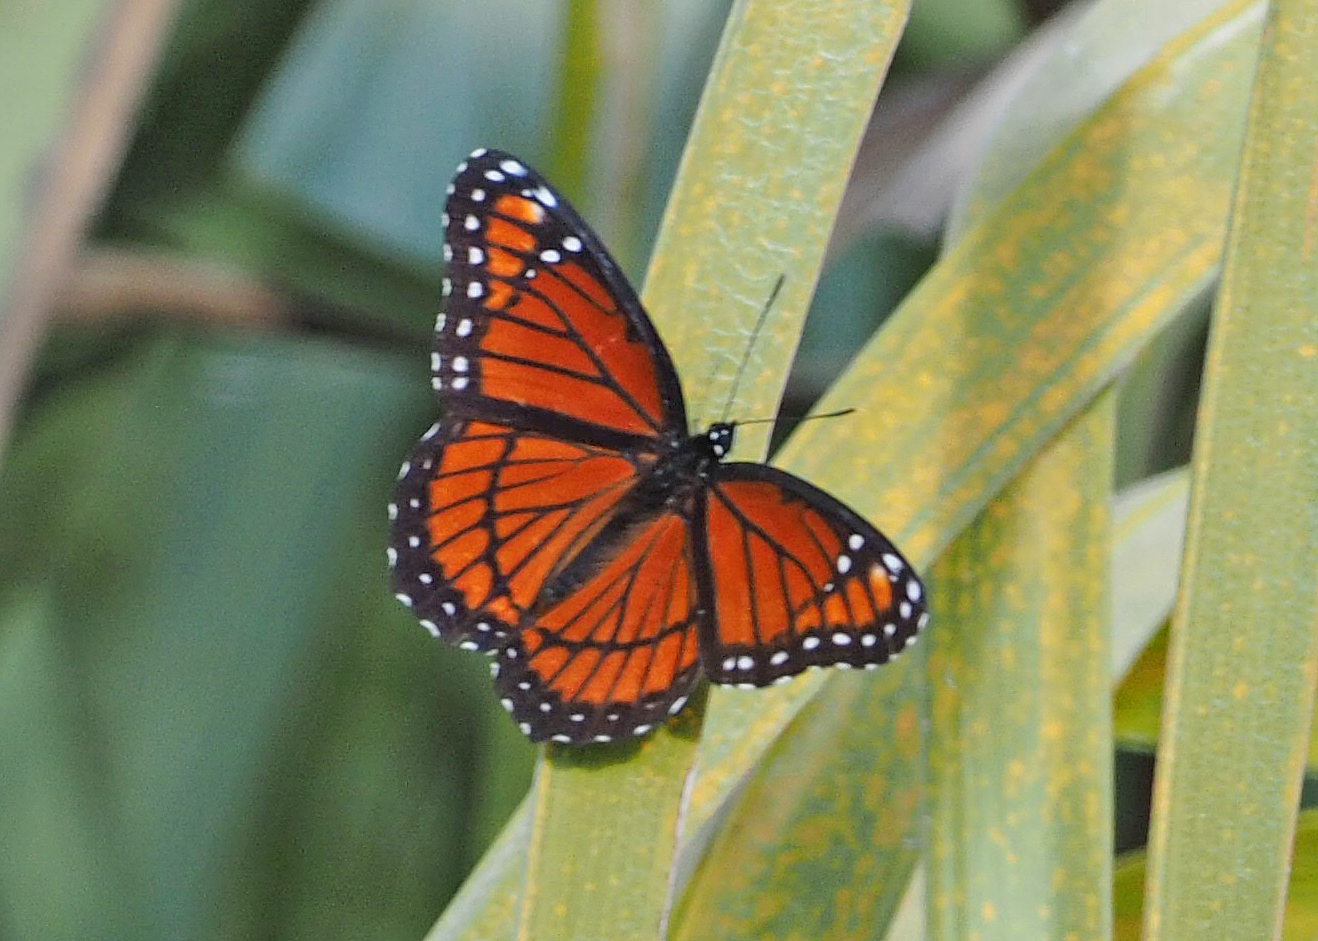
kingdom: Animalia
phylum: Arthropoda
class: Insecta
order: Lepidoptera
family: Nymphalidae
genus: Limenitis
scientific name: Limenitis archippus
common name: Viceroy
